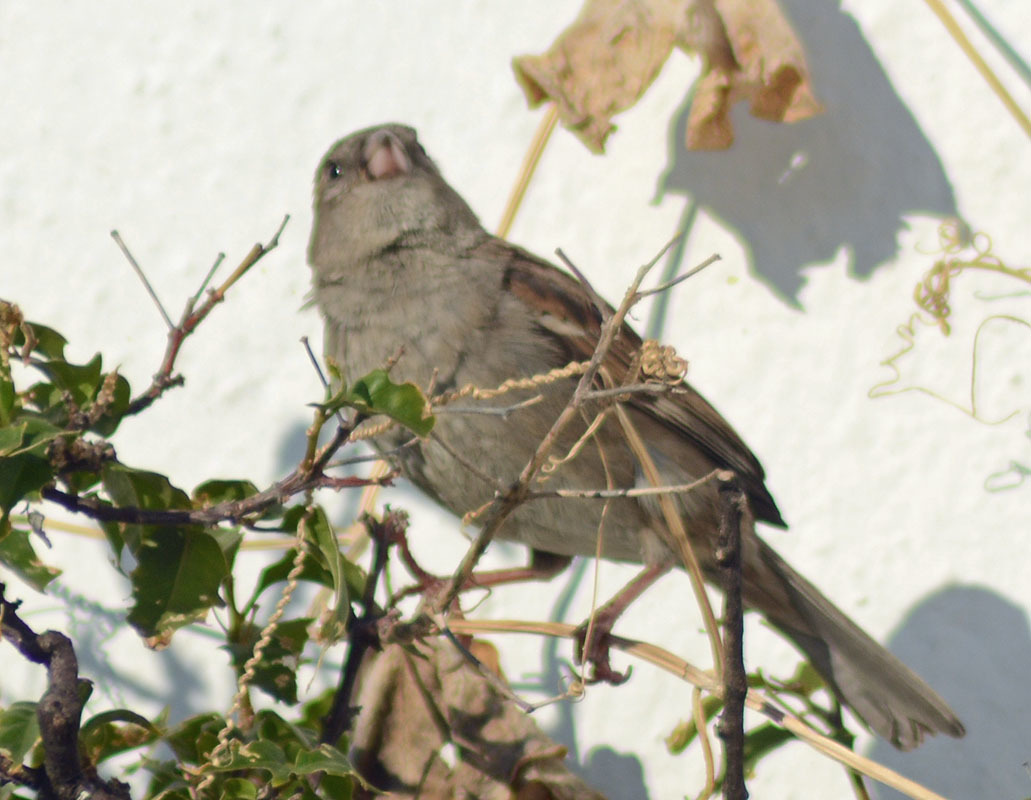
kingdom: Animalia
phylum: Chordata
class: Aves
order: Passeriformes
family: Passeridae
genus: Passer
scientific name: Passer domesticus
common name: House sparrow
